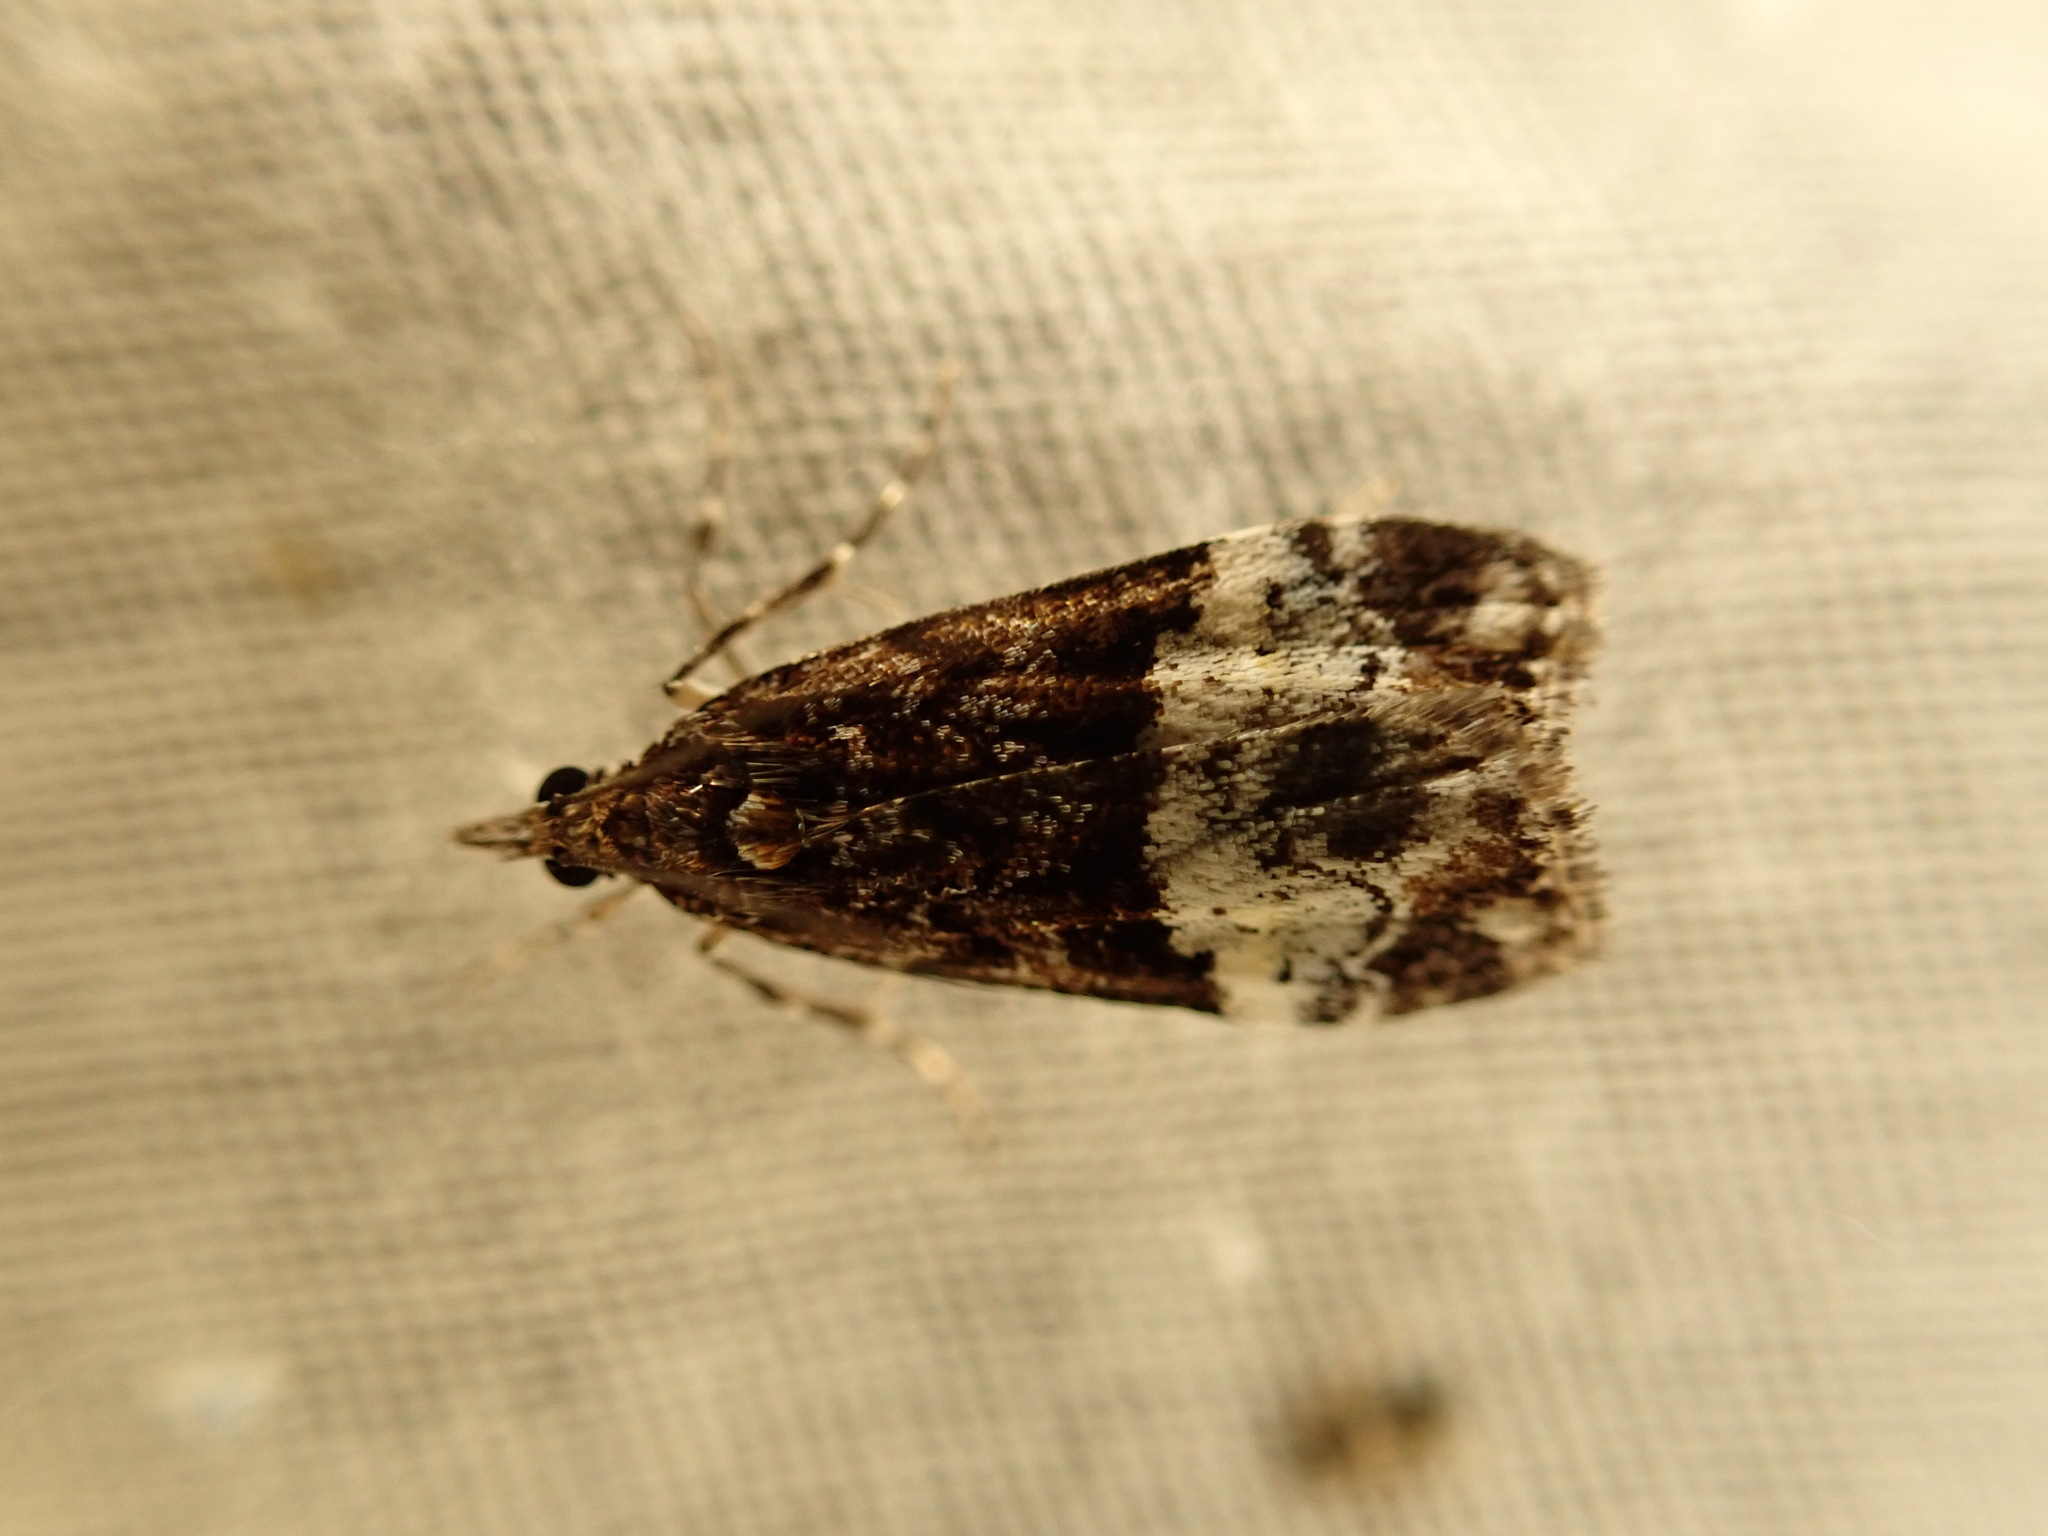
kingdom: Animalia
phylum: Arthropoda
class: Insecta
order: Lepidoptera
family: Crambidae
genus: Scoparia
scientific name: Scoparia minusculalis
